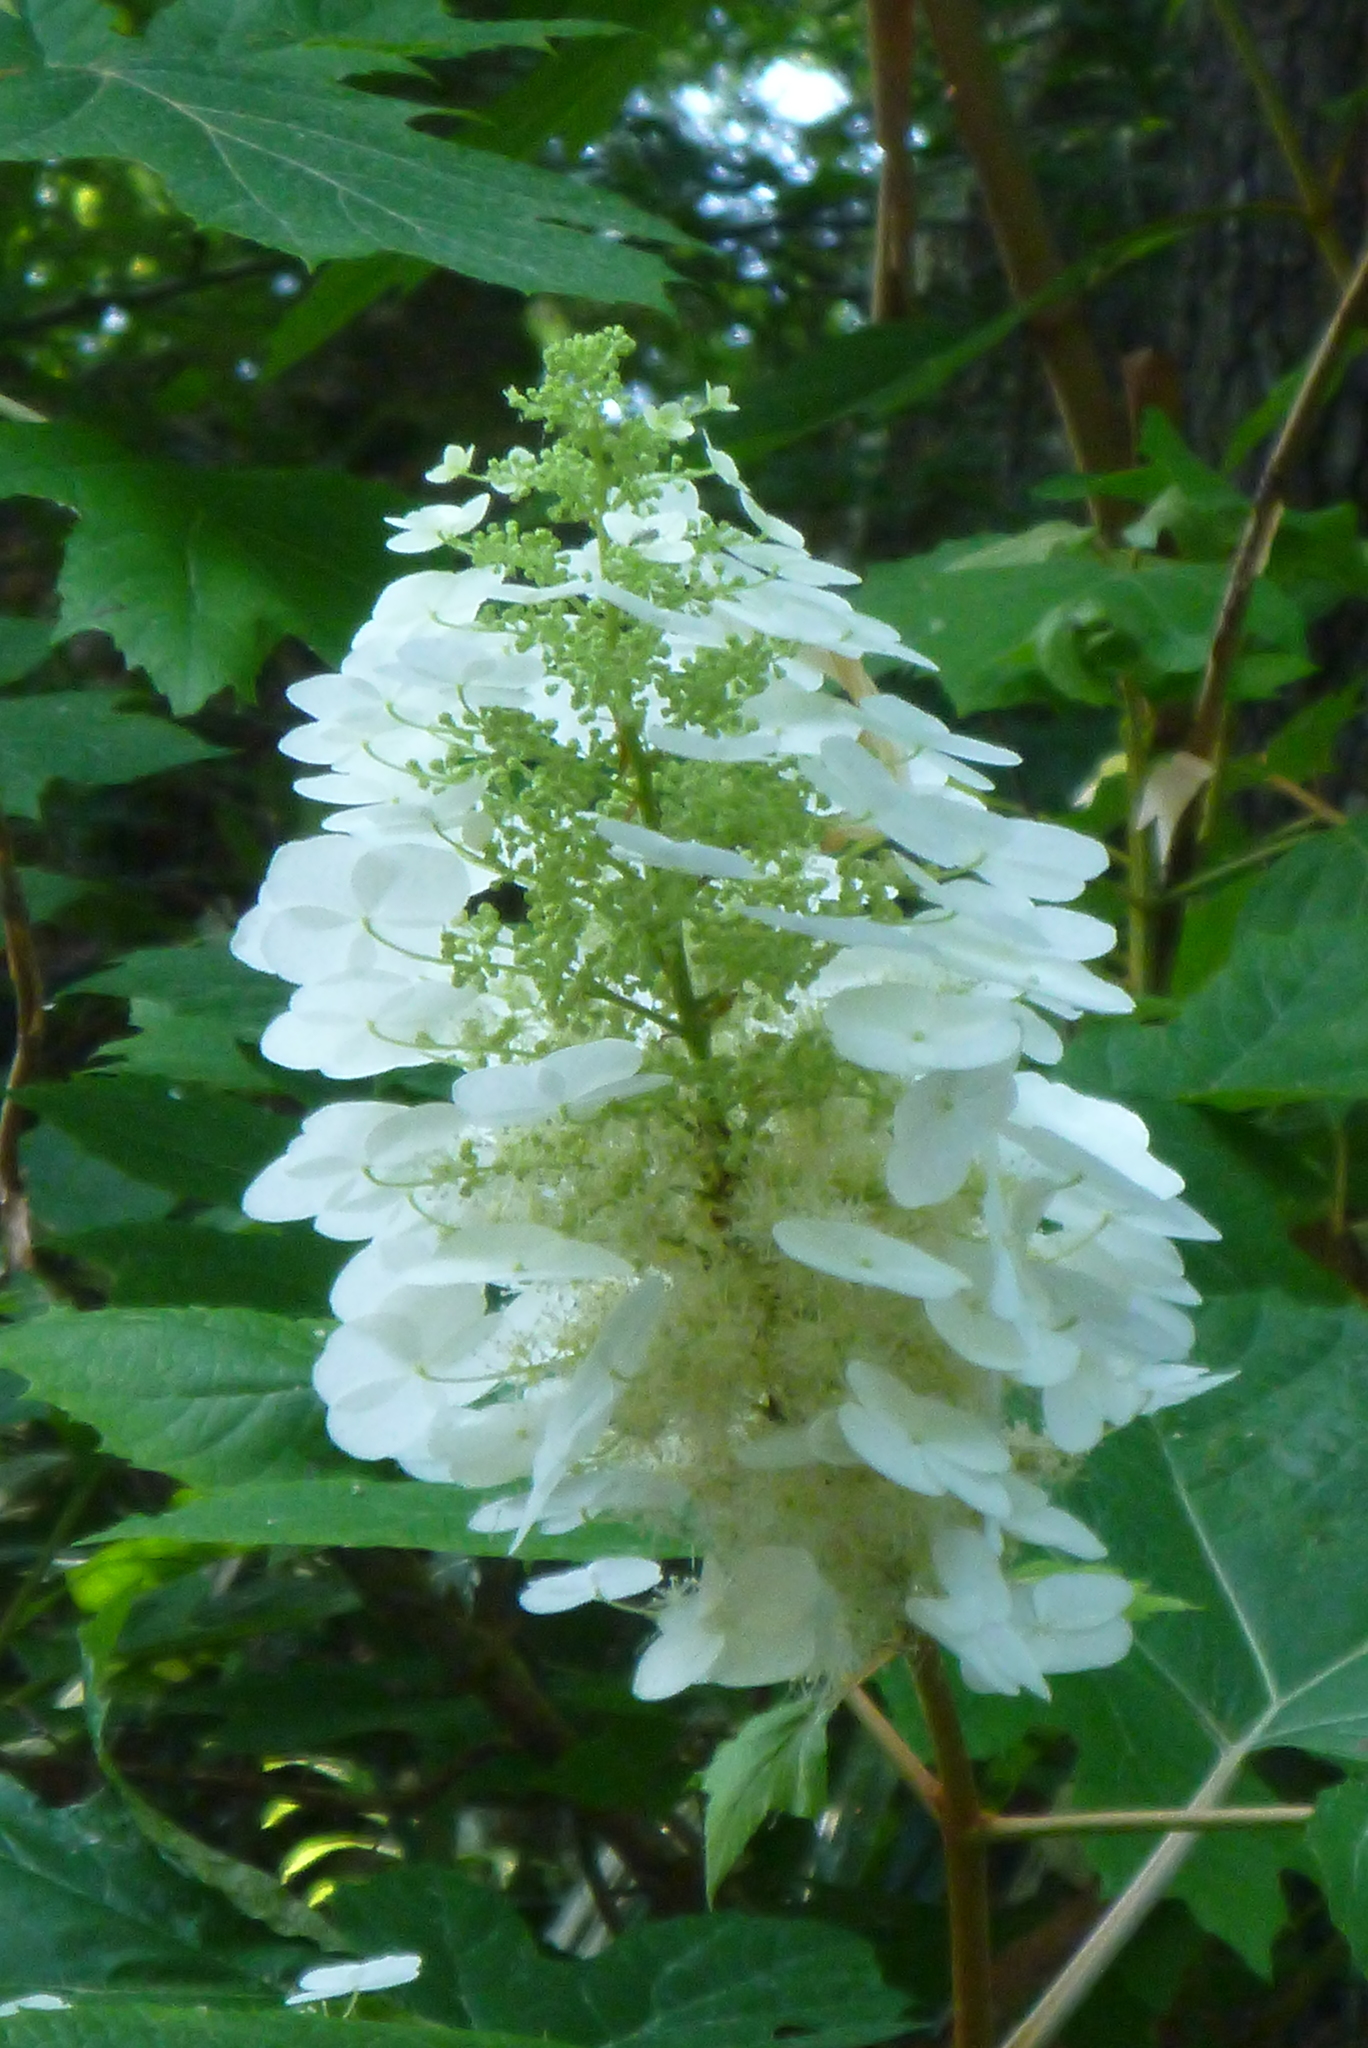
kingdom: Plantae
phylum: Tracheophyta
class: Magnoliopsida
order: Cornales
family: Hydrangeaceae
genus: Hydrangea
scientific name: Hydrangea quercifolia
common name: Oak-leaf hydrangea
